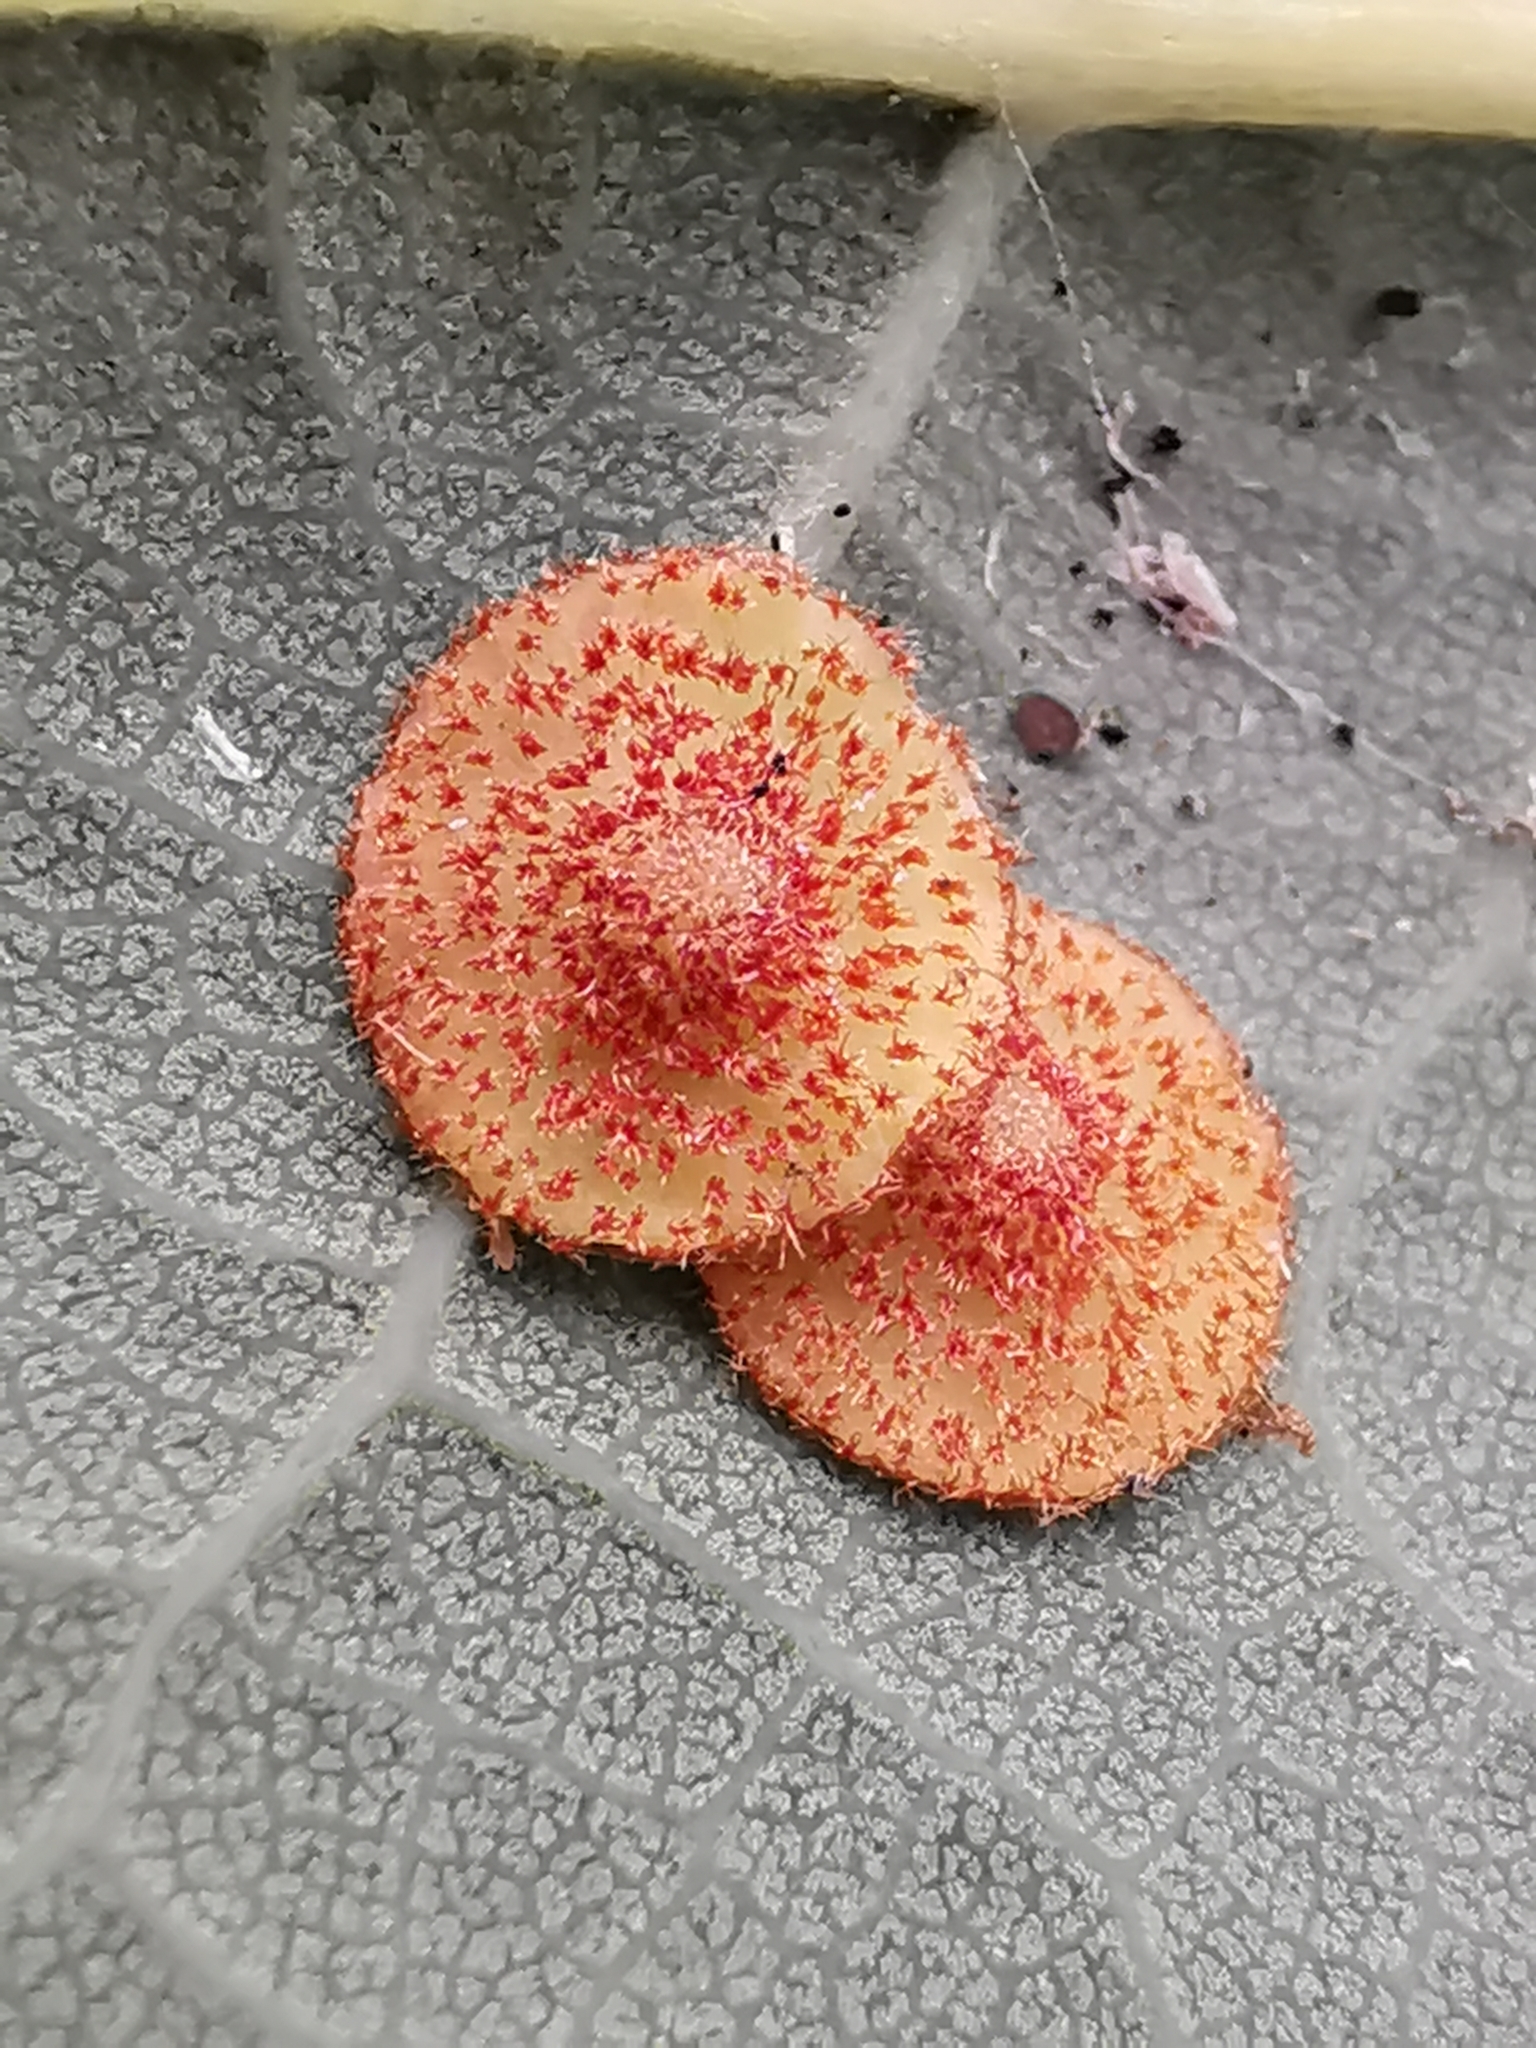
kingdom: Animalia
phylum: Arthropoda
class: Insecta
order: Hymenoptera
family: Cynipidae
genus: Neuroterus
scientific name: Neuroterus quercusbaccarum
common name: Common spangle gall
